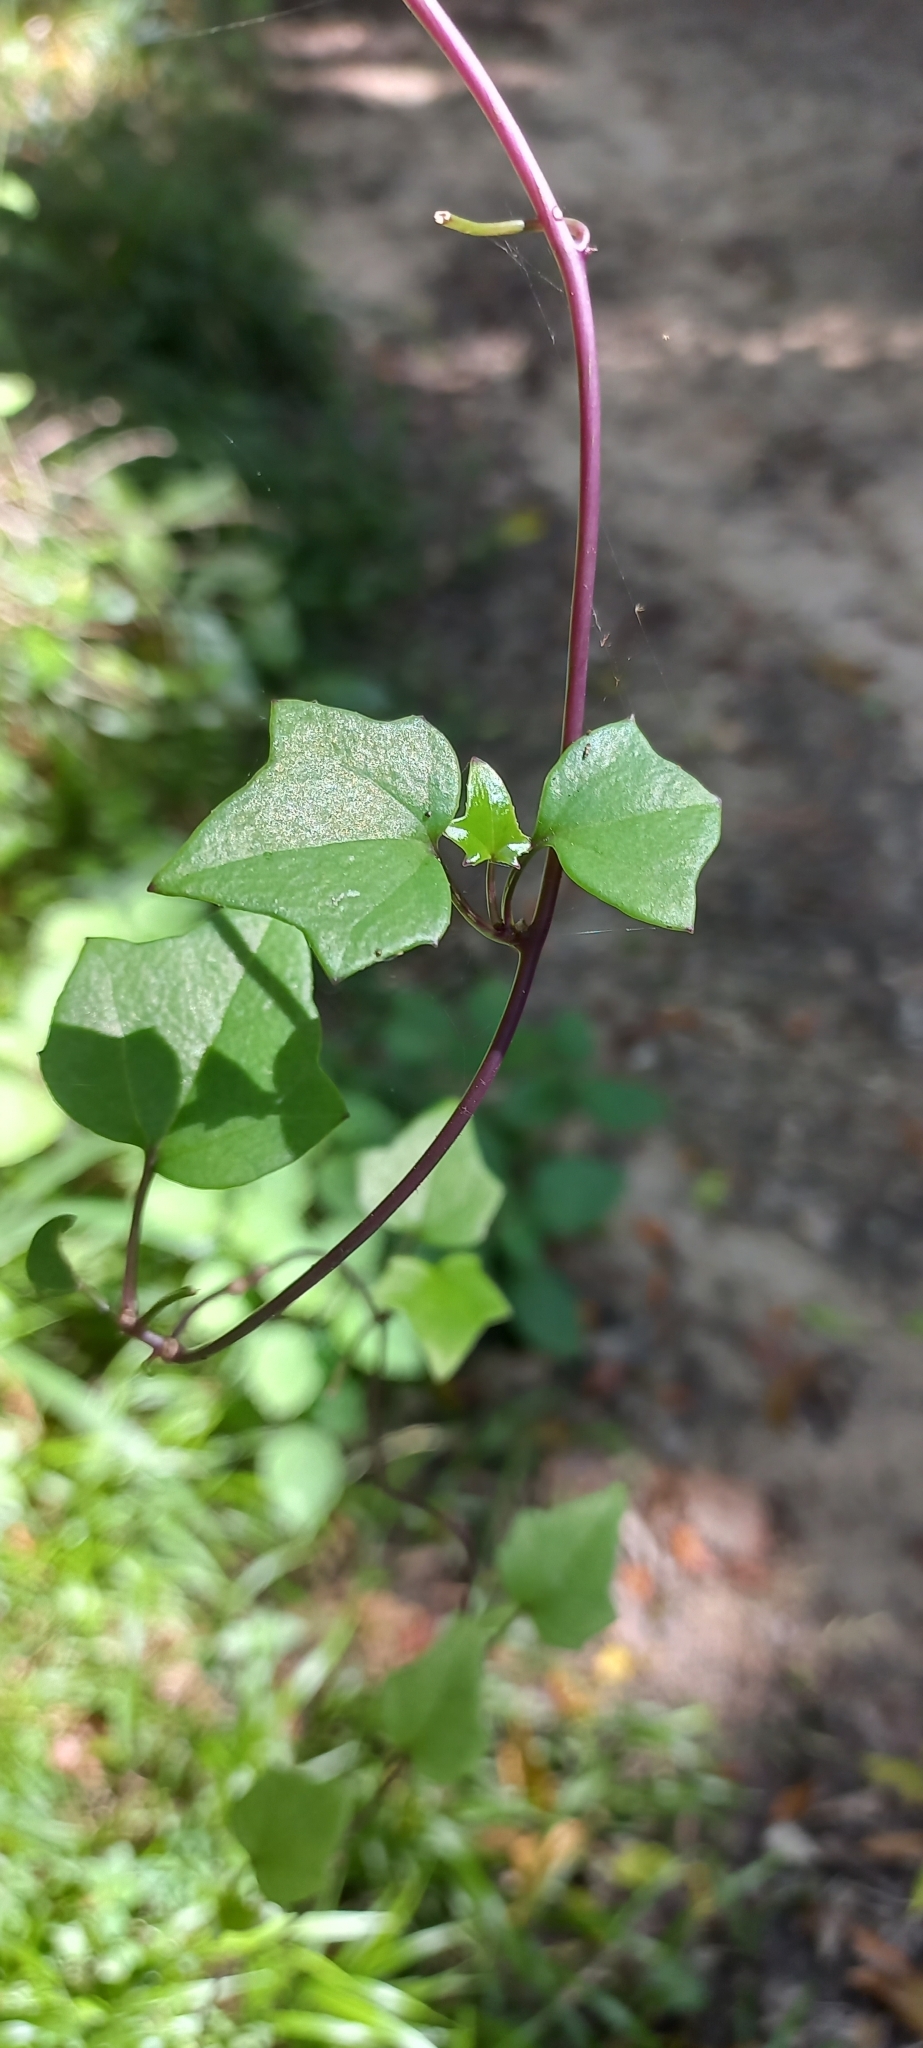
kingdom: Plantae
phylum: Tracheophyta
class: Magnoliopsida
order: Asterales
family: Asteraceae
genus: Delairea
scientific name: Delairea odorata
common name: Cape-ivy
